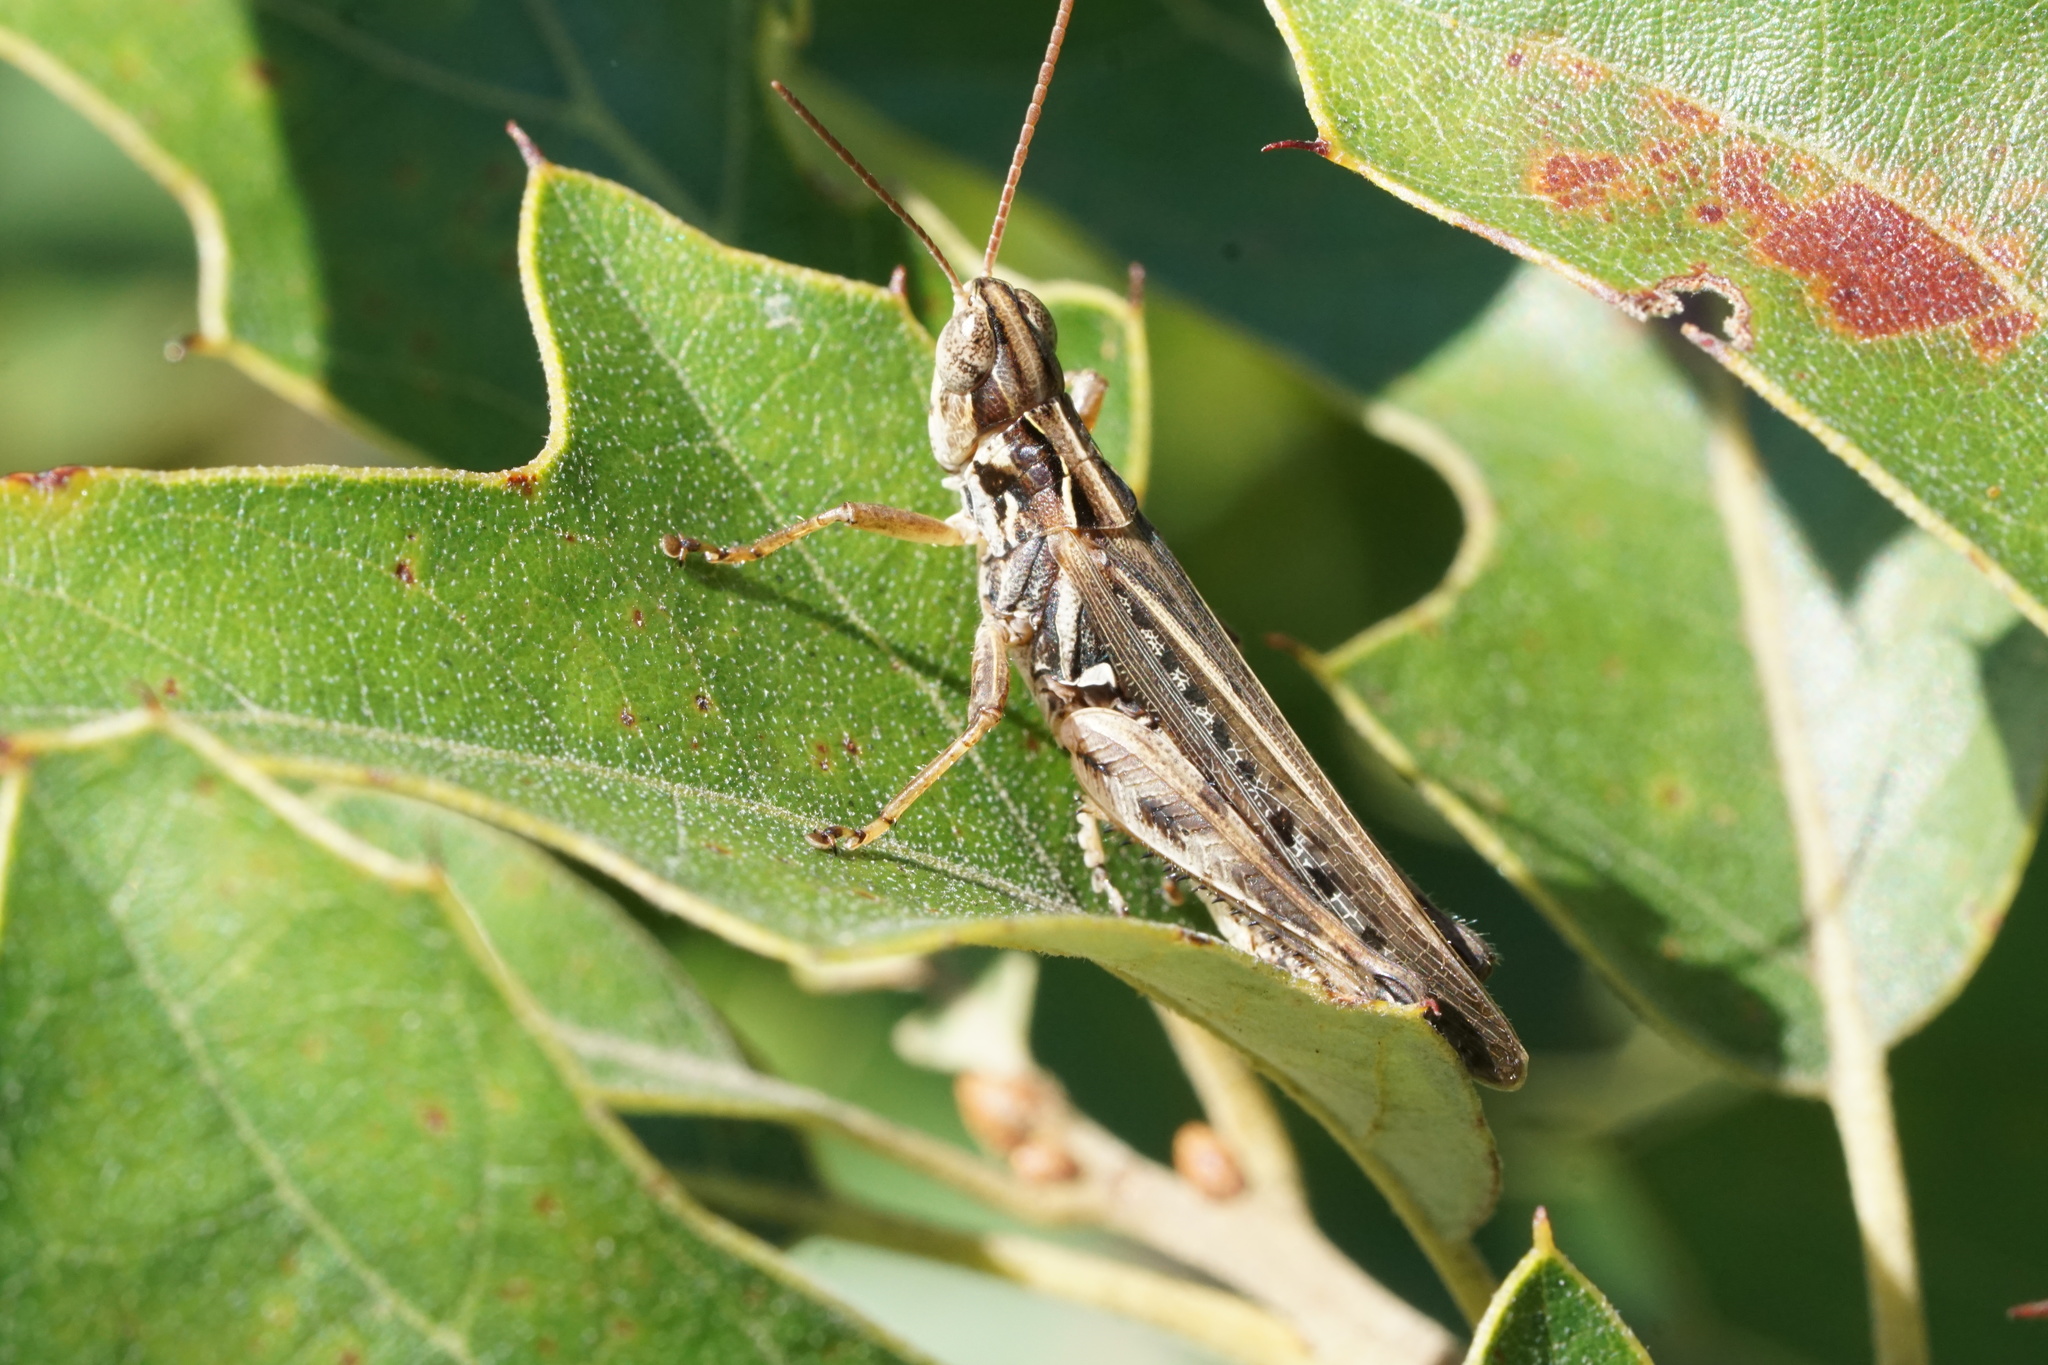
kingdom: Animalia
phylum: Arthropoda
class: Insecta
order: Orthoptera
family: Acrididae
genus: Orphulella
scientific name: Orphulella pelidna
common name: Spotted-wing grasshopper
